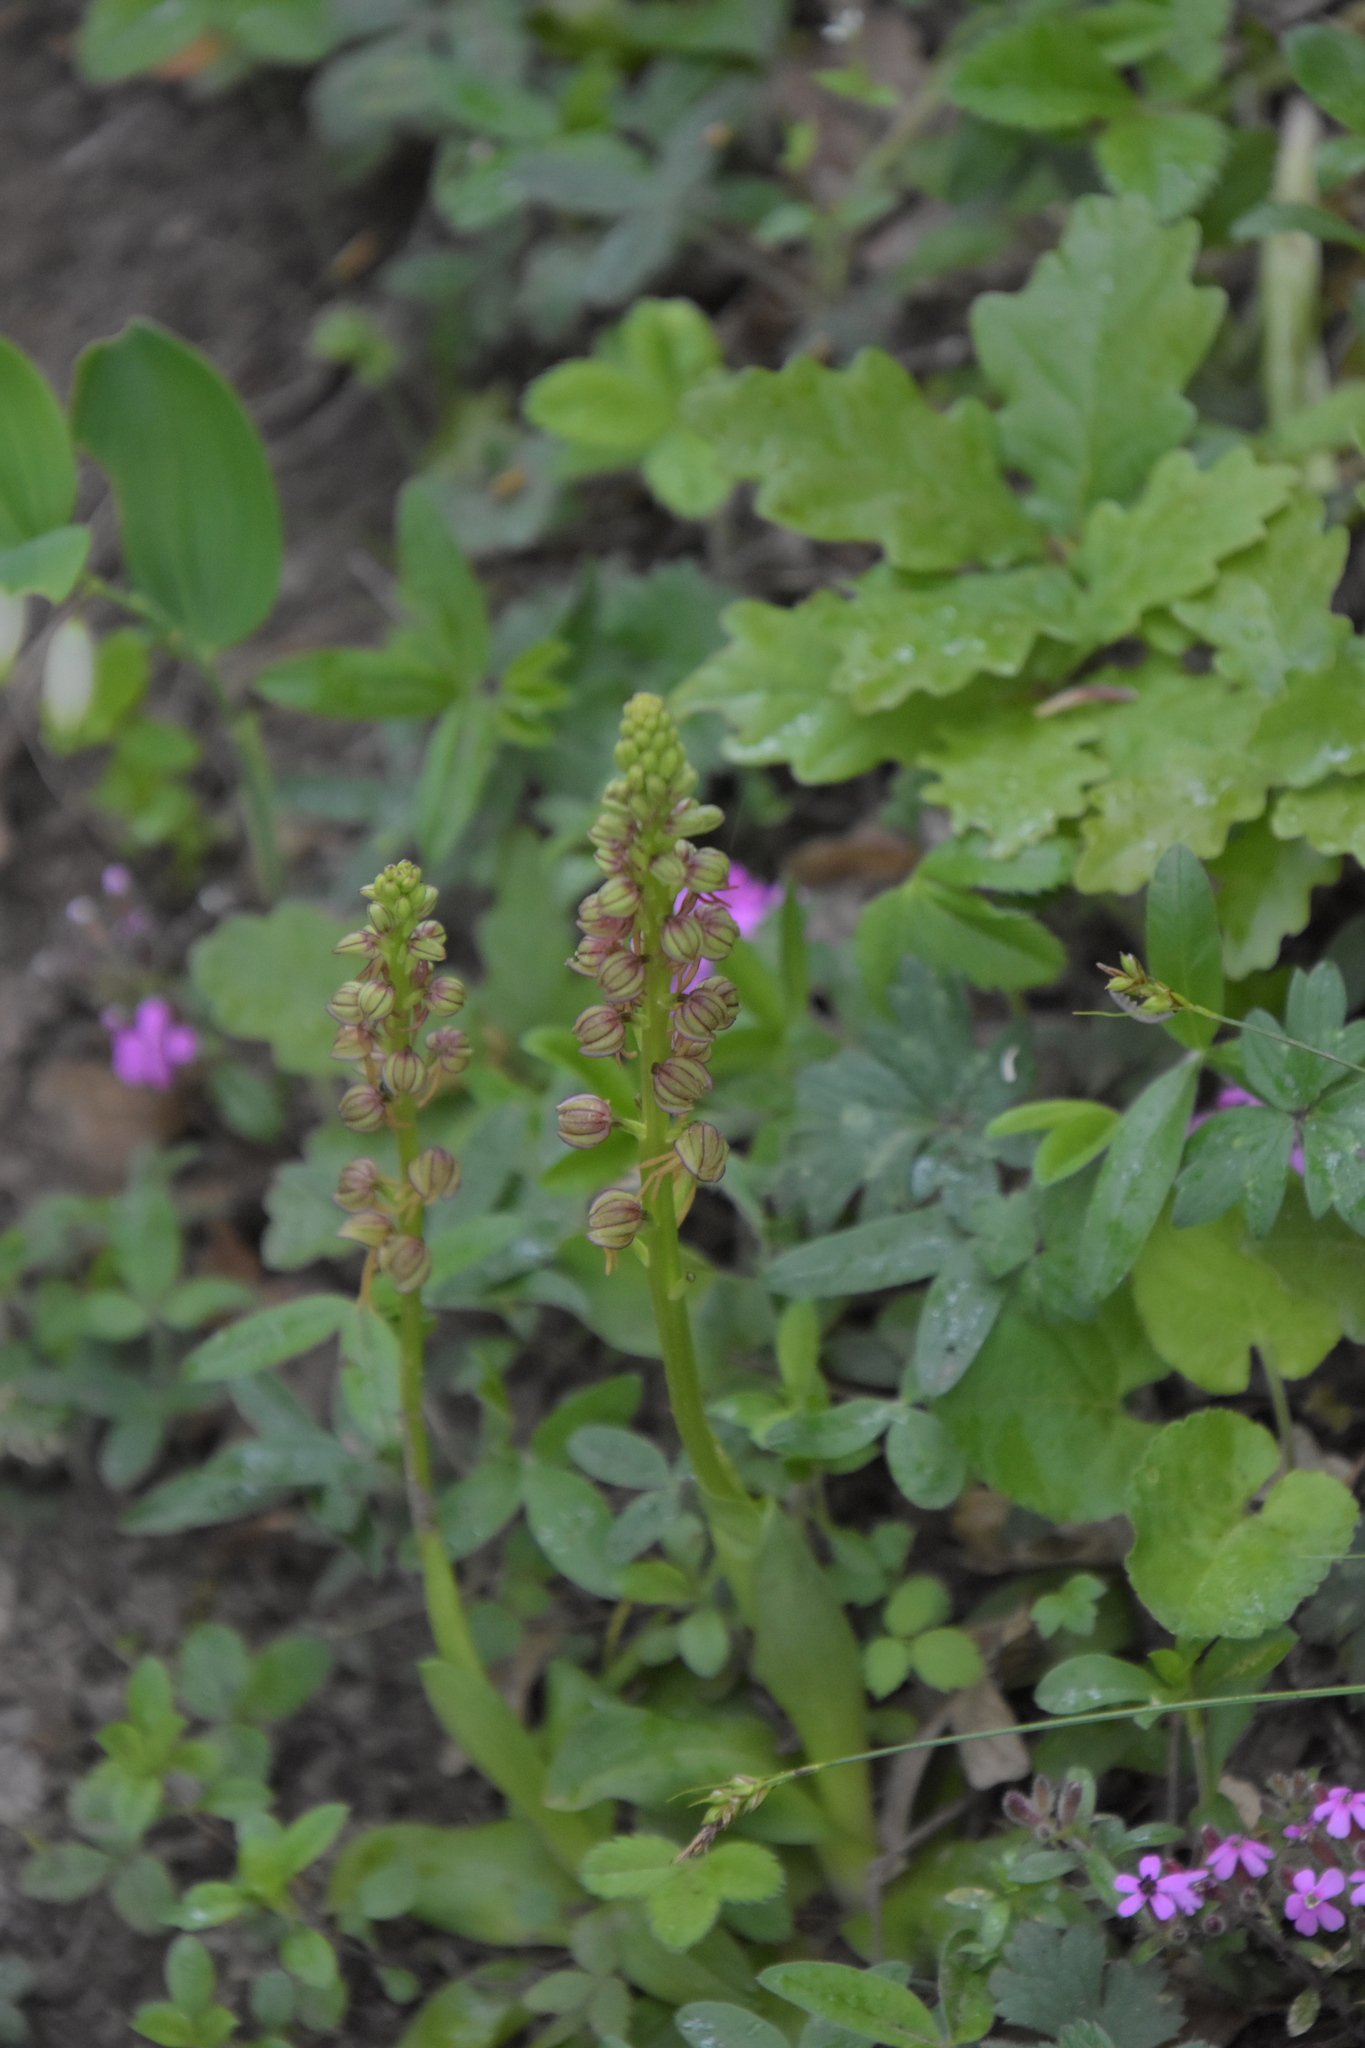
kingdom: Plantae
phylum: Tracheophyta
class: Liliopsida
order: Asparagales
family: Orchidaceae
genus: Orchis
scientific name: Orchis anthropophora
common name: Man orchid
